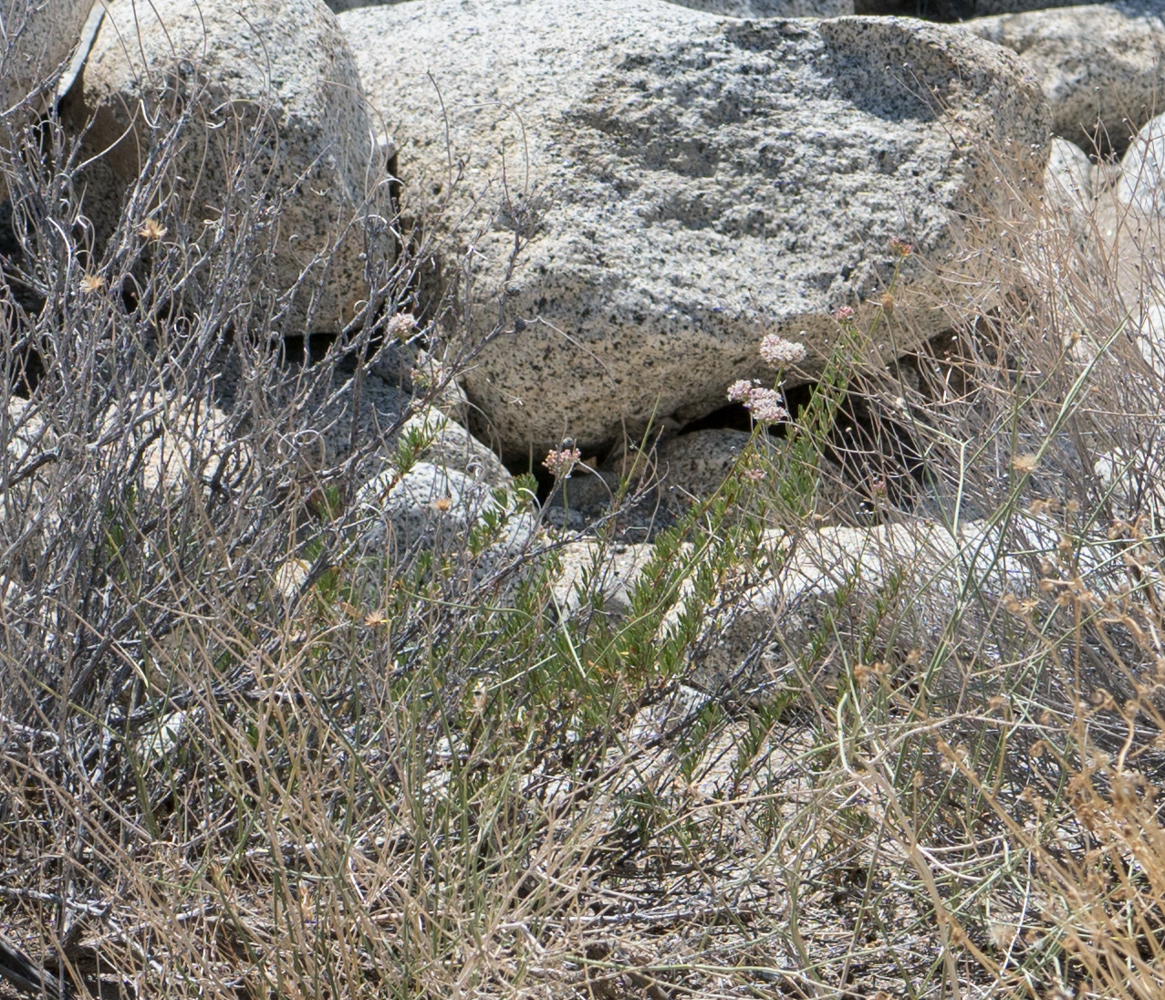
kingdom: Plantae
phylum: Tracheophyta
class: Magnoliopsida
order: Caryophyllales
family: Polygonaceae
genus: Eriogonum
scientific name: Eriogonum fasciculatum
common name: California wild buckwheat
